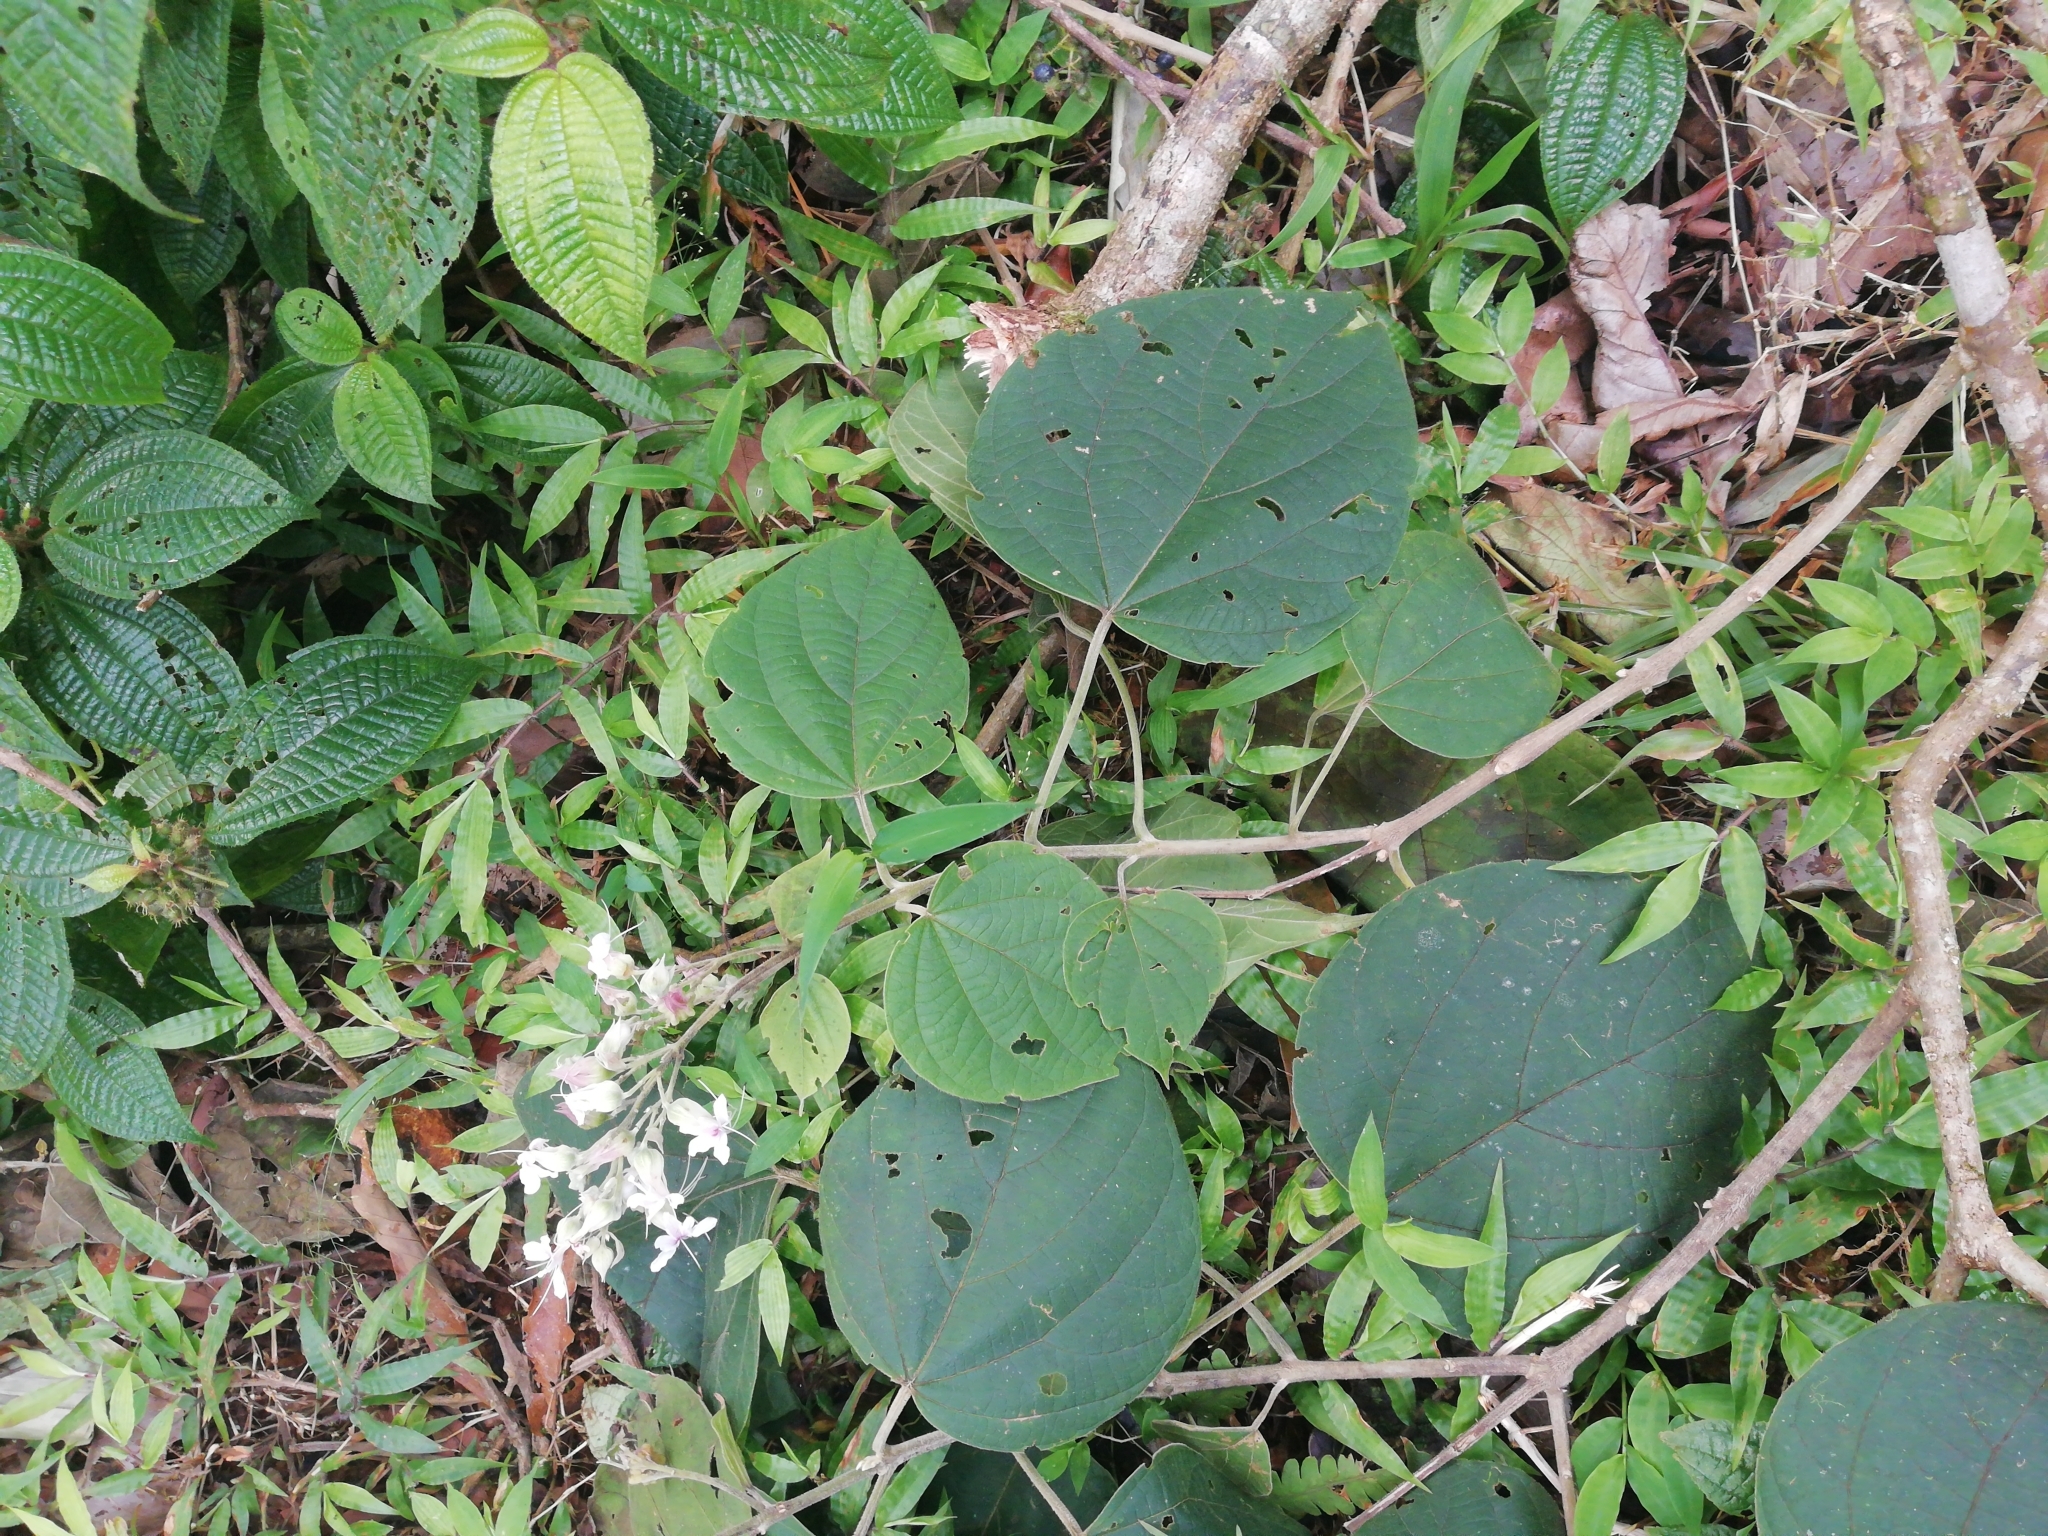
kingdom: Plantae
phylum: Tracheophyta
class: Magnoliopsida
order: Lamiales
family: Lamiaceae
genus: Clerodendrum
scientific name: Clerodendrum infortunatum
